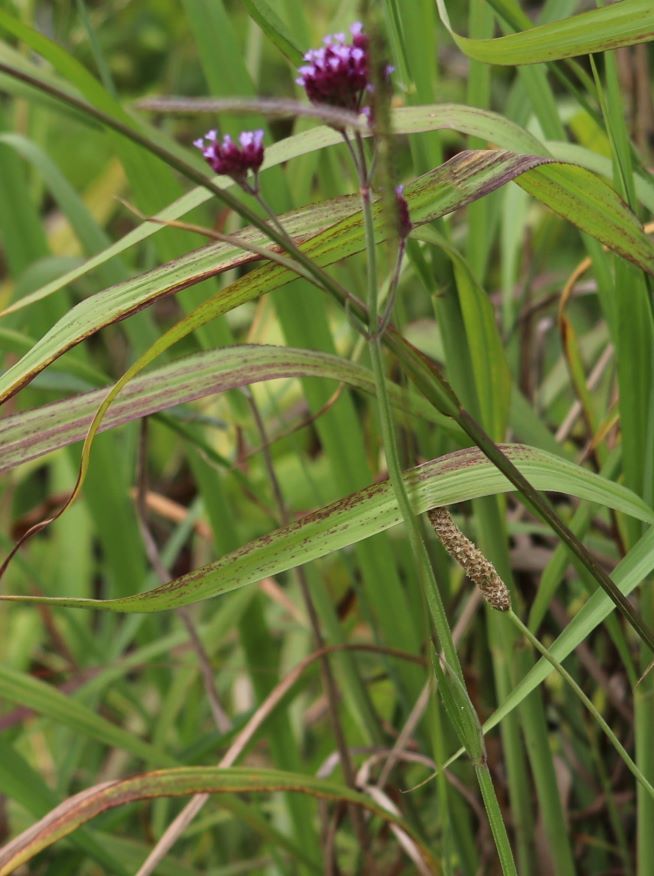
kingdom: Plantae
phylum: Tracheophyta
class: Magnoliopsida
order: Lamiales
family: Verbenaceae
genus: Verbena
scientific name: Verbena bonariensis
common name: Purpletop vervain
